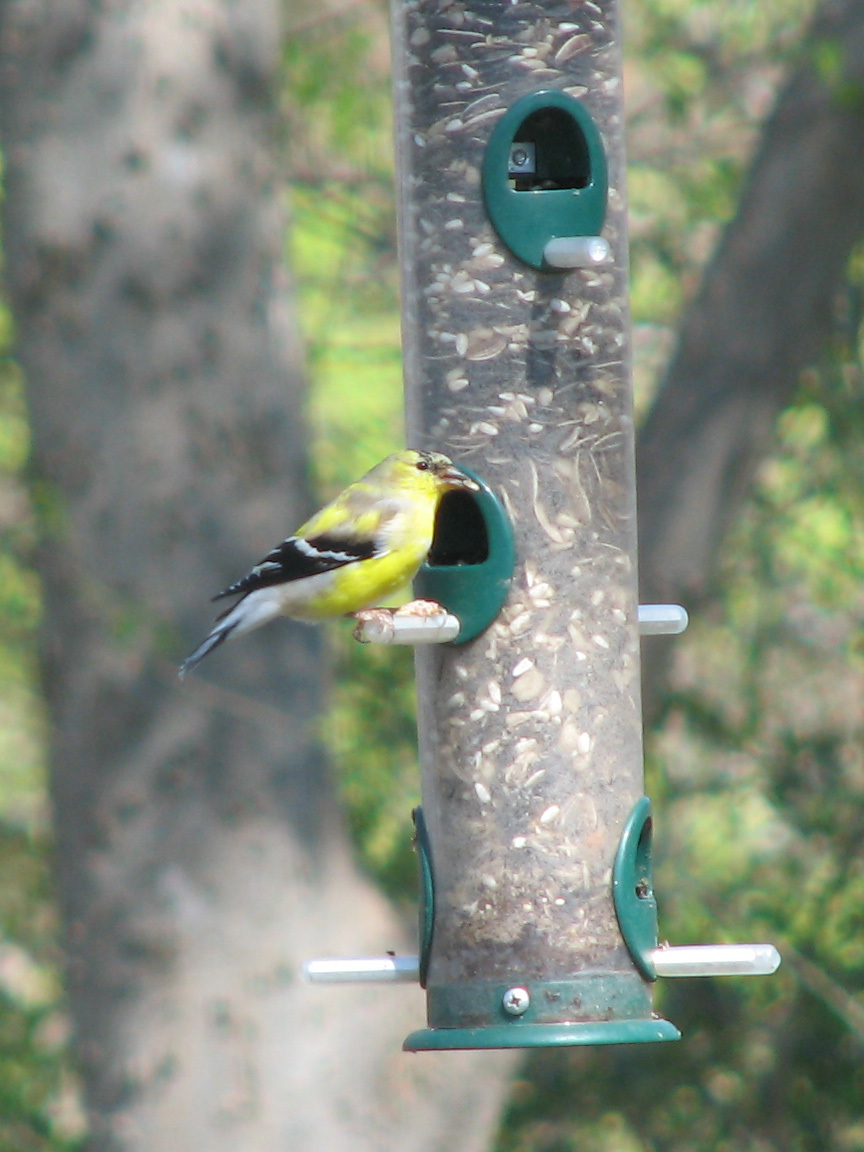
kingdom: Animalia
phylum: Chordata
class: Aves
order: Passeriformes
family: Fringillidae
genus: Spinus
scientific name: Spinus tristis
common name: American goldfinch
